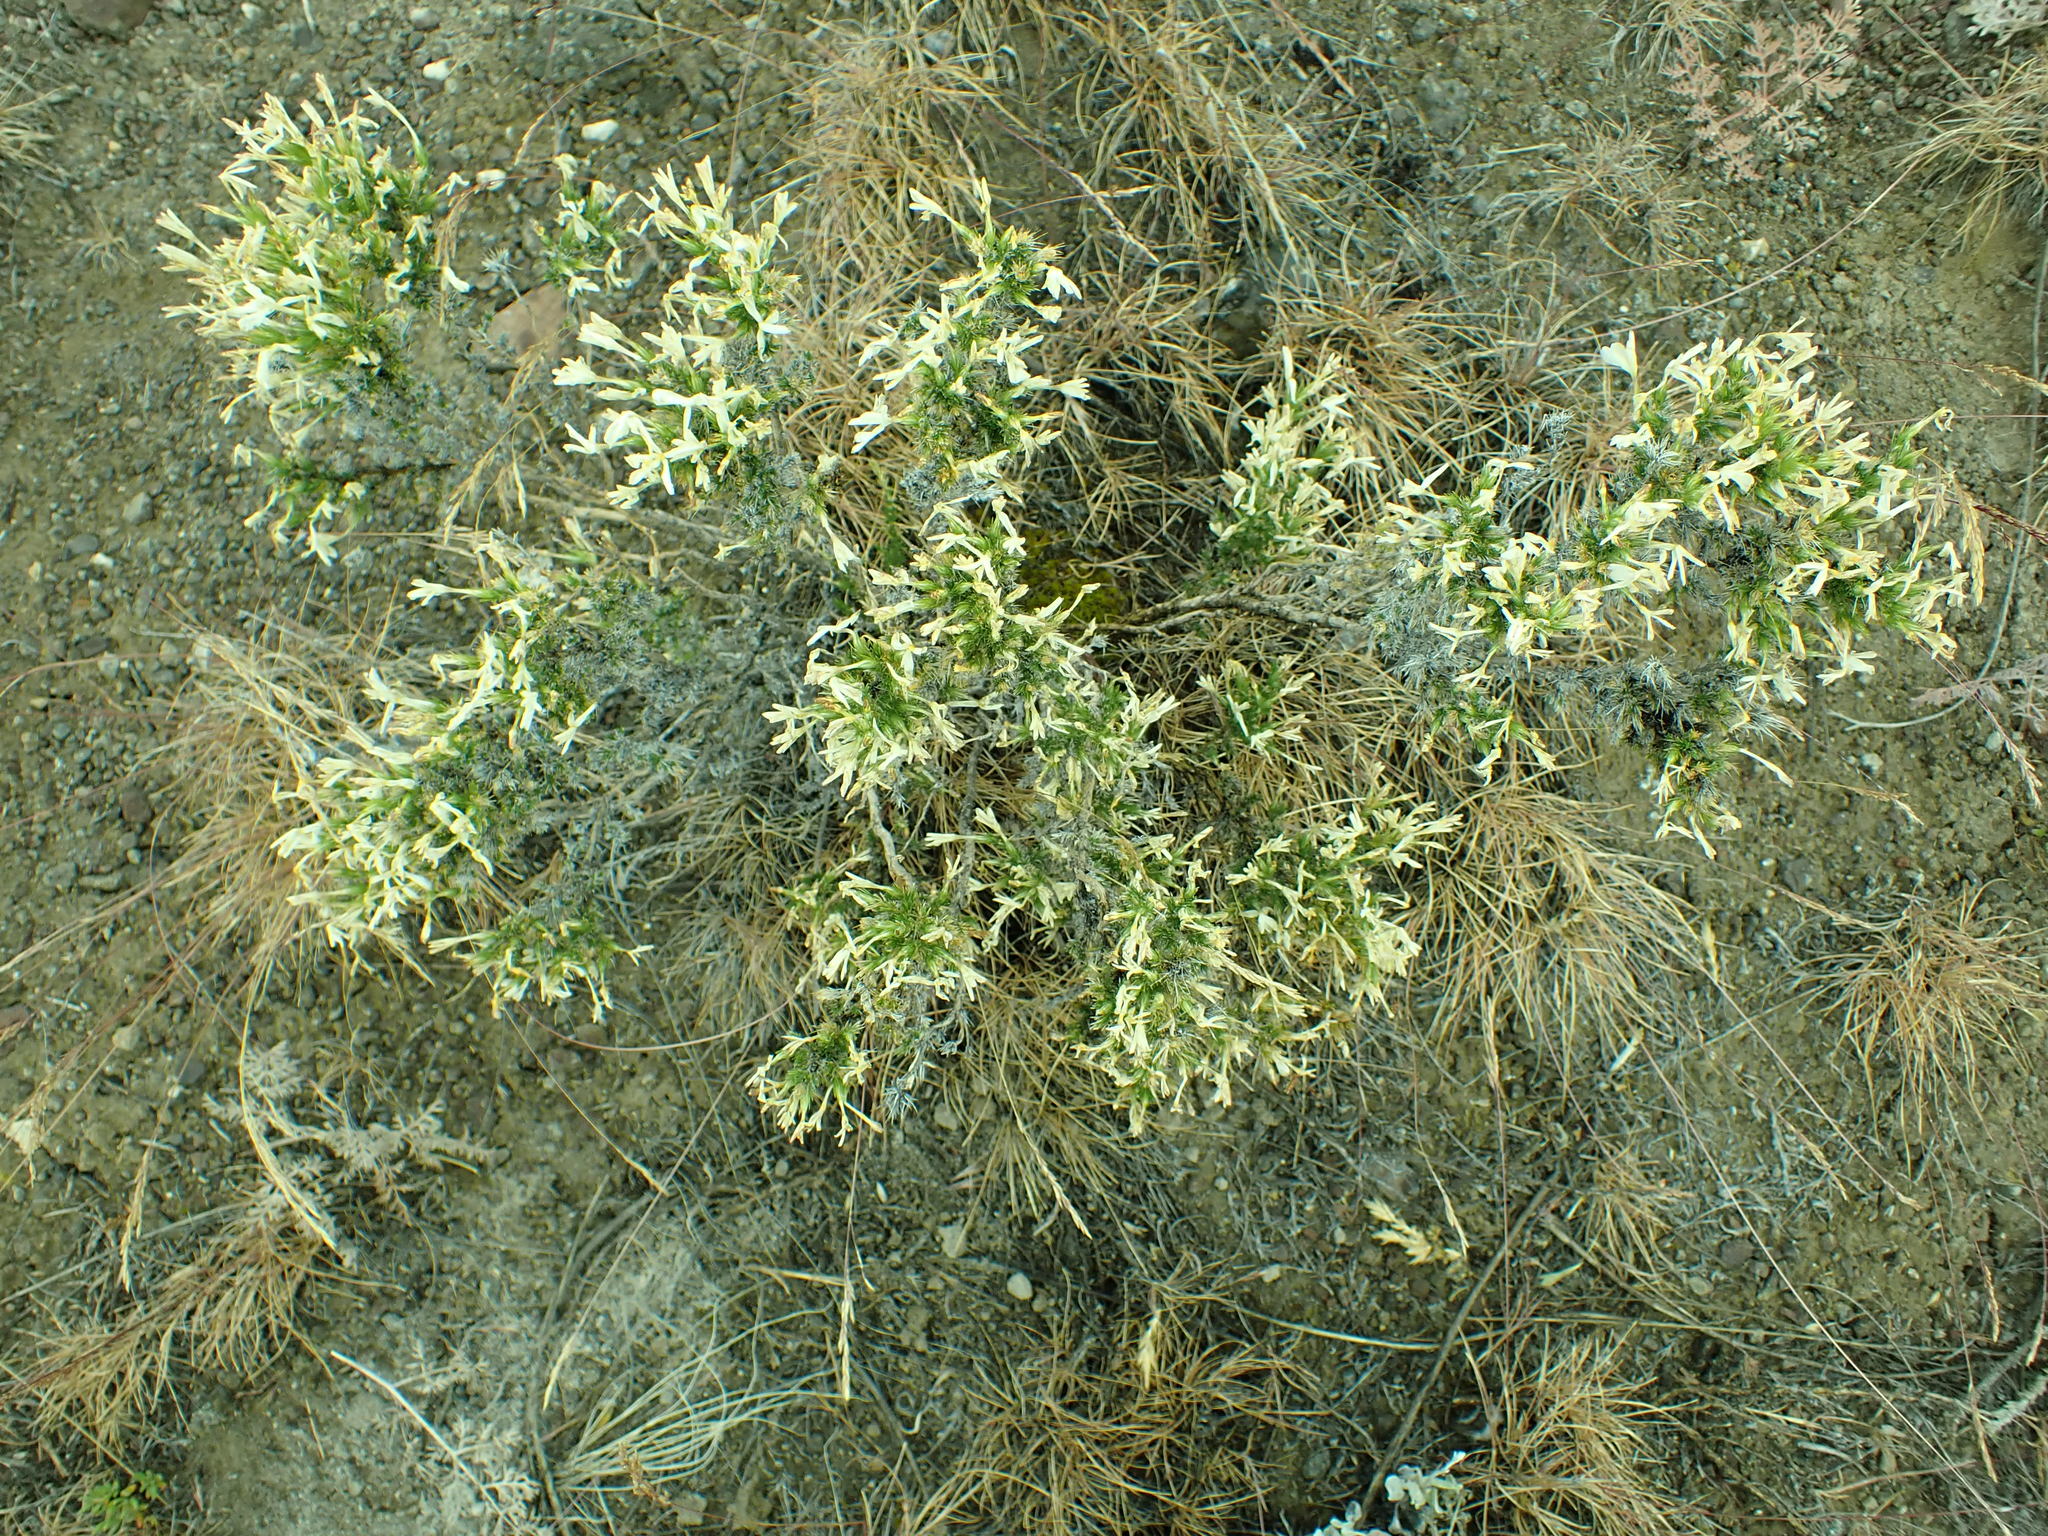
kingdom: Plantae
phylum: Tracheophyta
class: Magnoliopsida
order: Ericales
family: Polemoniaceae
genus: Linanthus
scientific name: Linanthus pungens
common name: Granite prickly phlox
